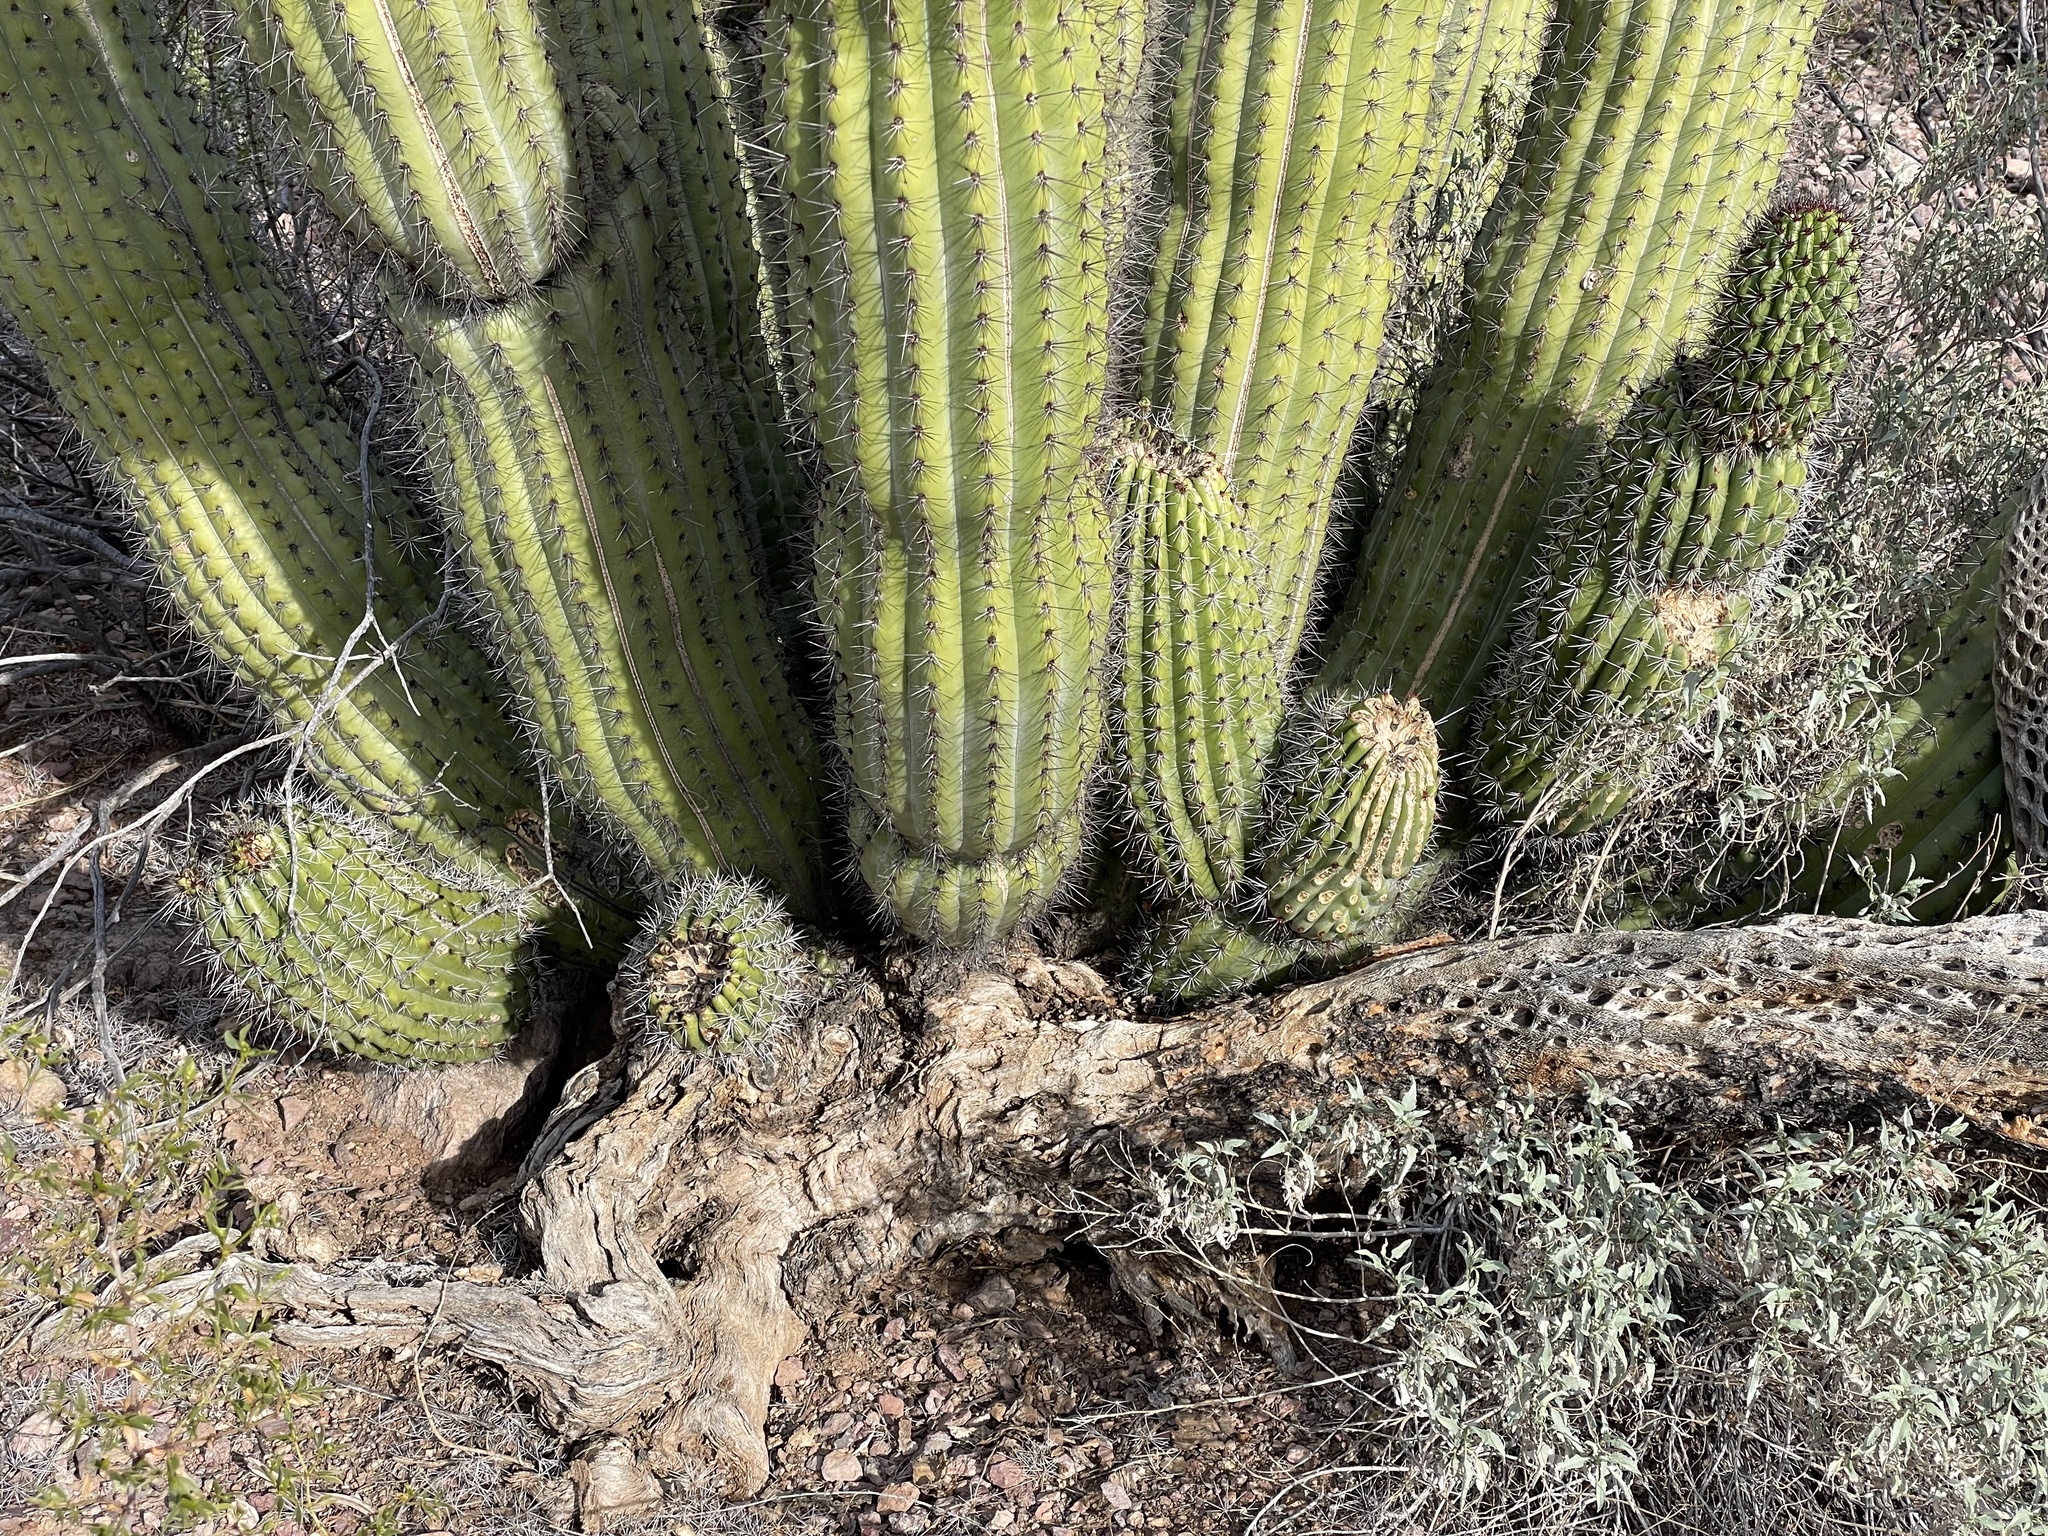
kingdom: Plantae
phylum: Tracheophyta
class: Magnoliopsida
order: Caryophyllales
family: Cactaceae
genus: Stenocereus
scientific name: Stenocereus thurberi
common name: Organ pipe cactus
